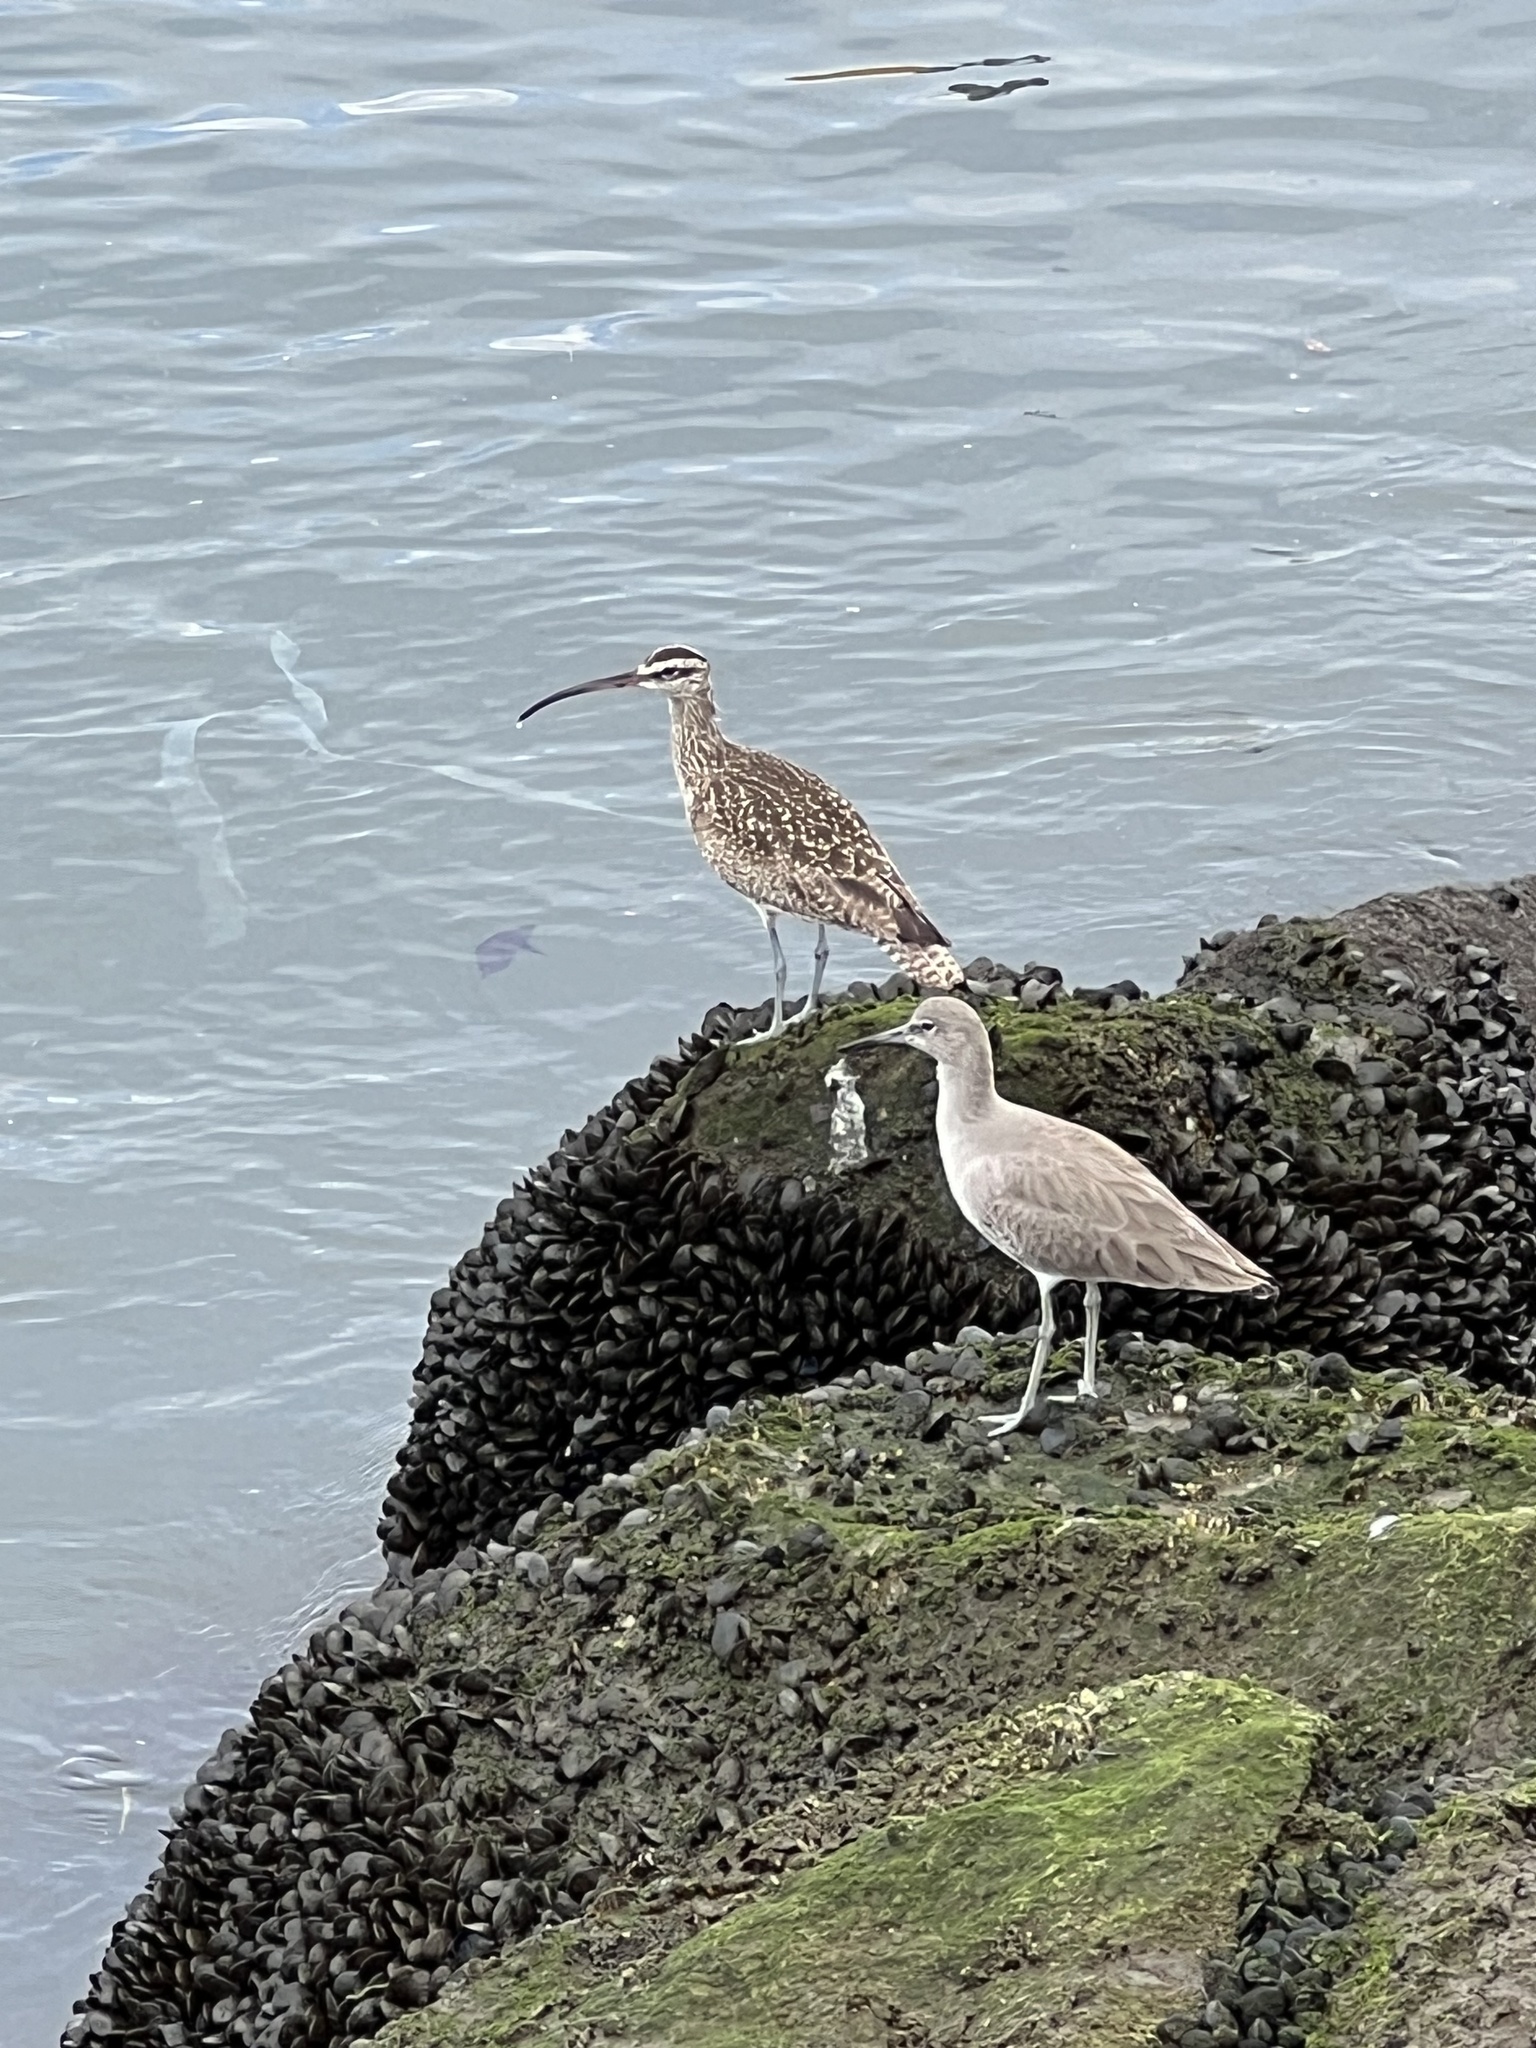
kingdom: Animalia
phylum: Chordata
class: Aves
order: Charadriiformes
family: Scolopacidae
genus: Numenius
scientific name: Numenius phaeopus
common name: Whimbrel
